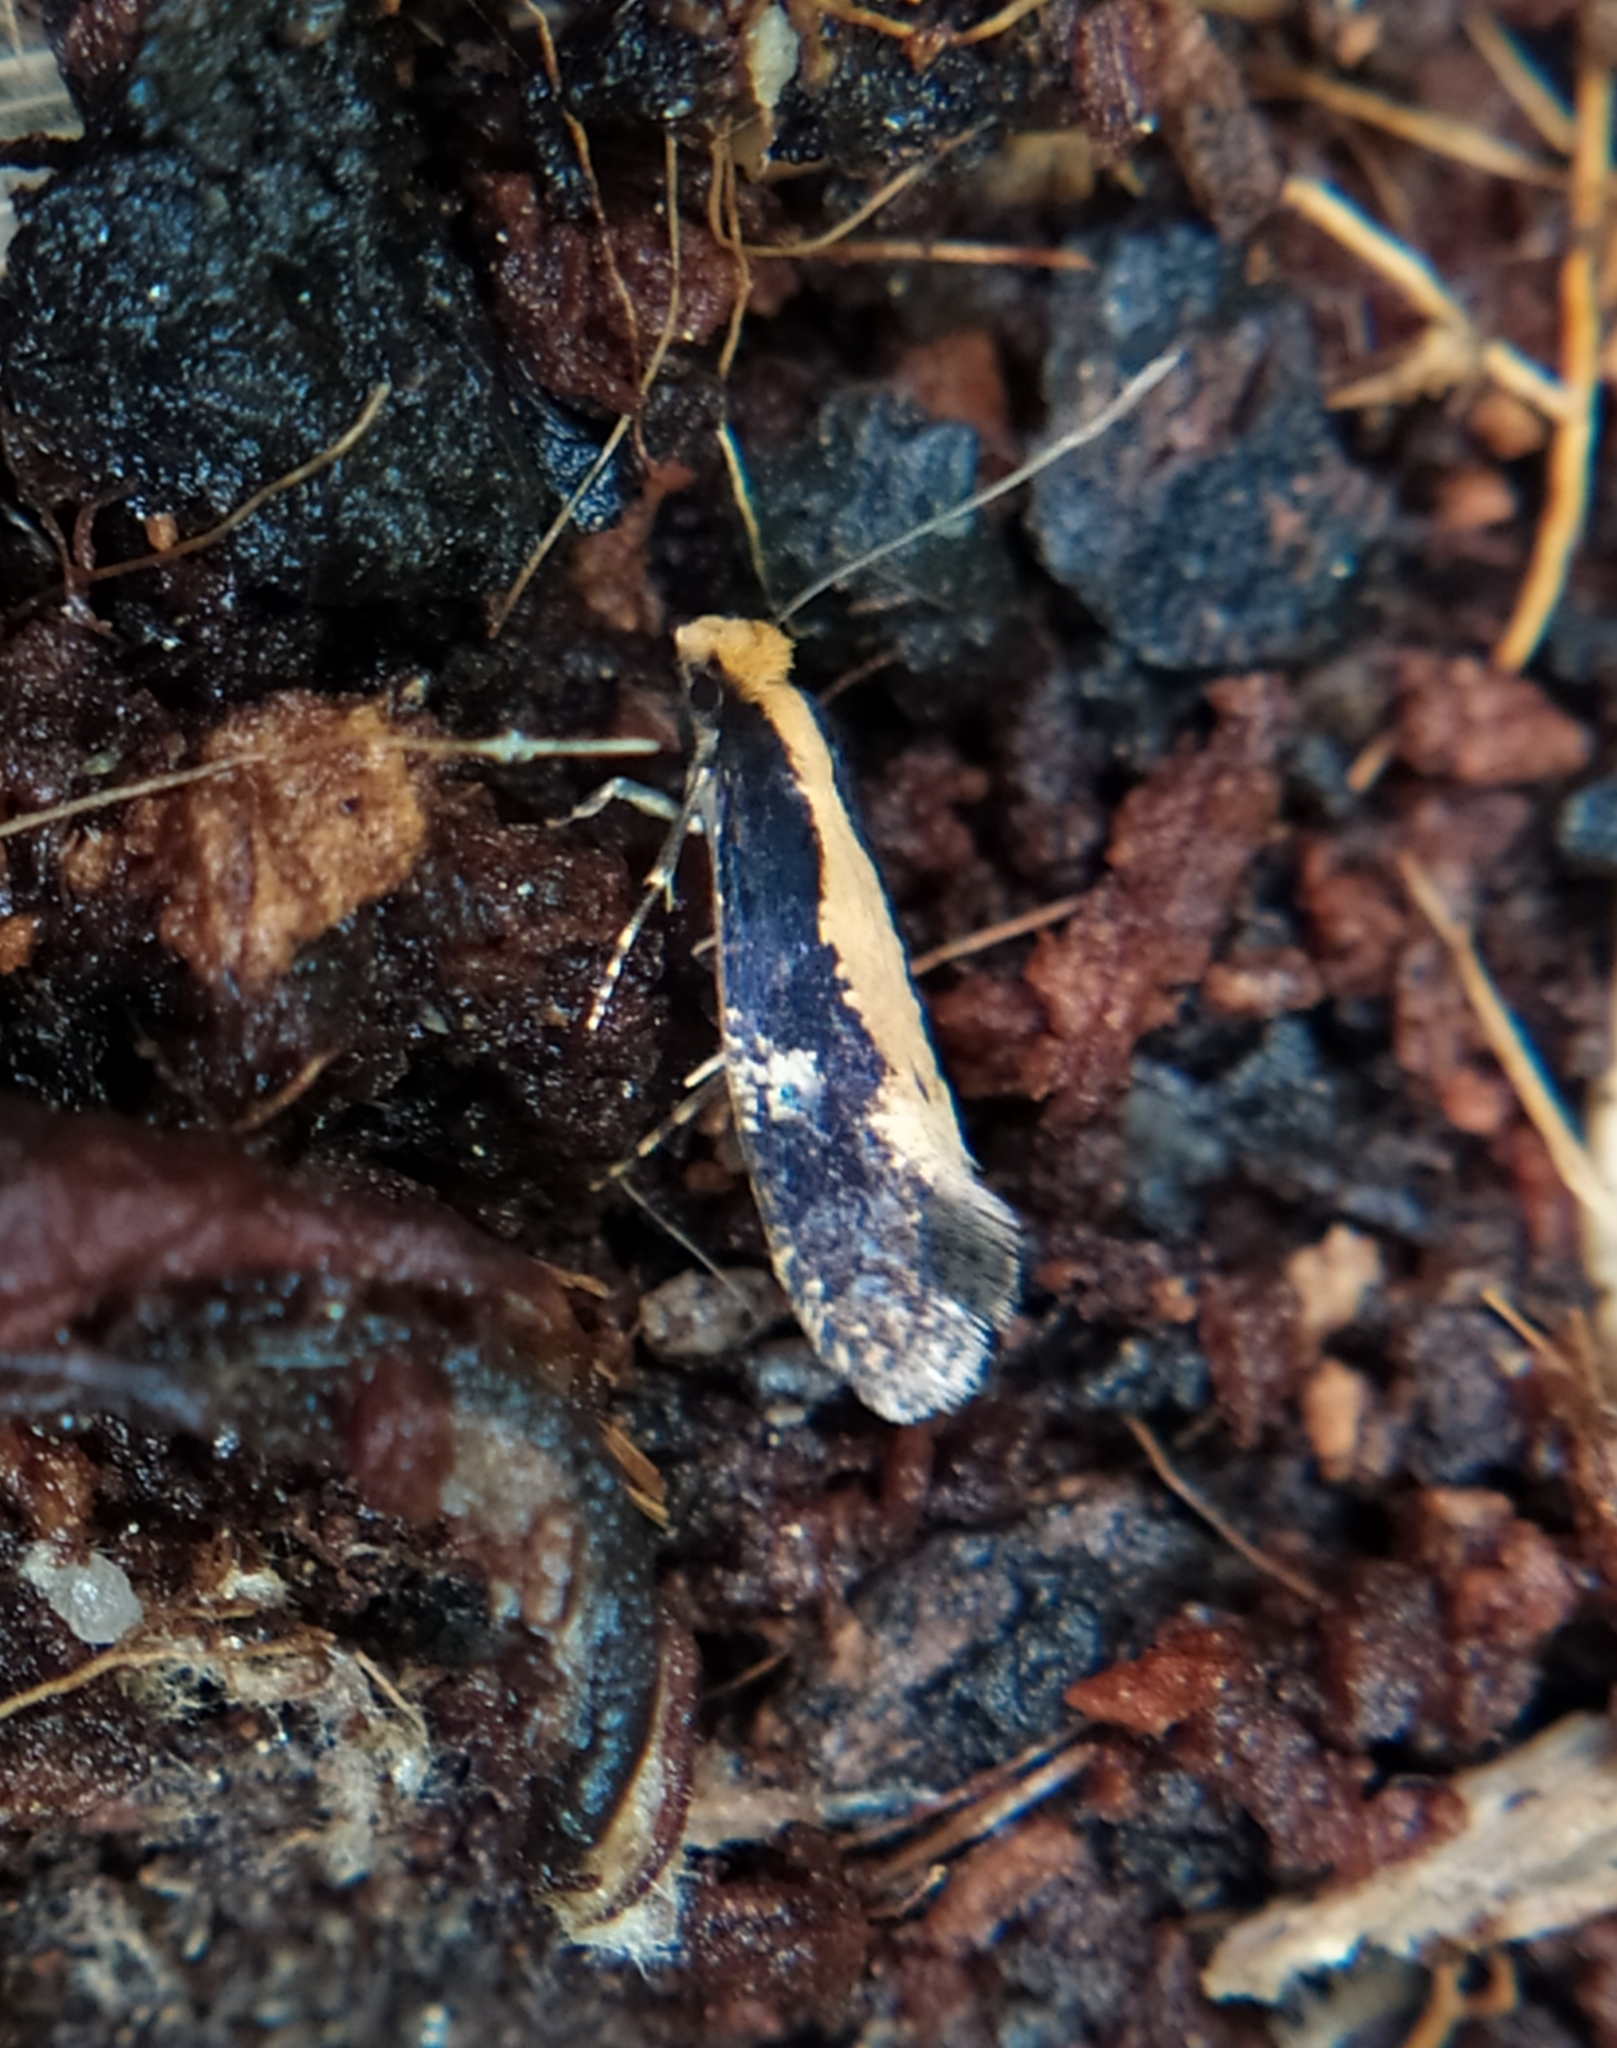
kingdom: Animalia
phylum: Arthropoda
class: Insecta
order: Lepidoptera
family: Tineidae
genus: Monopis
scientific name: Monopis obviella
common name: Tineid moth
